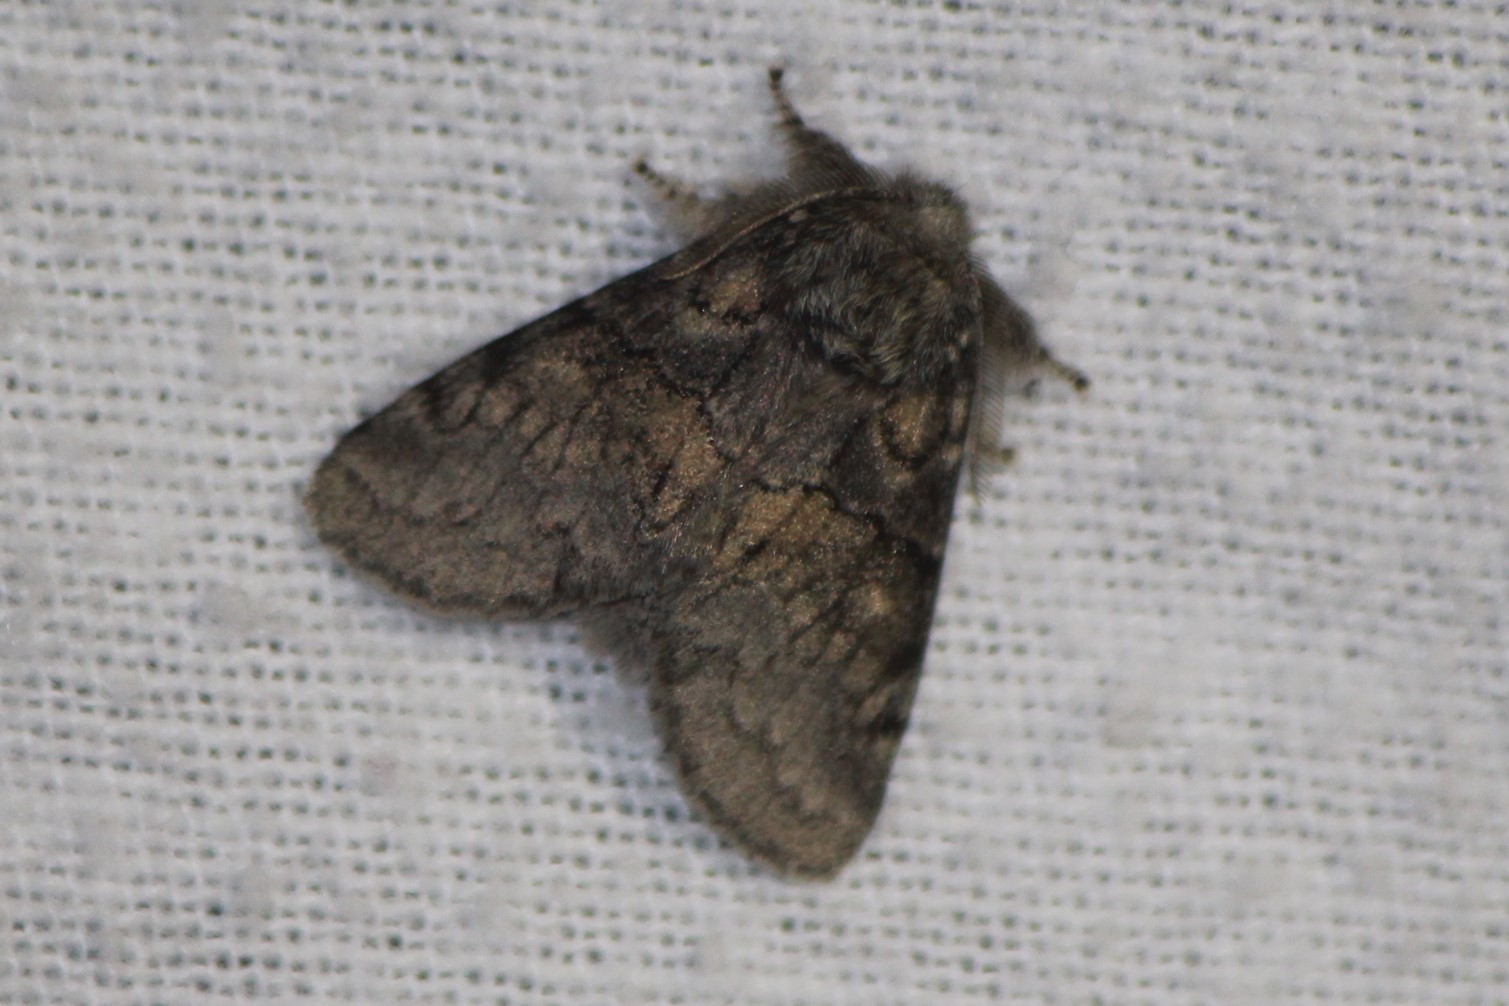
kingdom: Animalia
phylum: Arthropoda
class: Insecta
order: Lepidoptera
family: Notodontidae
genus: Gluphisia
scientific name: Gluphisia septentrionis
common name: Common gluphisia
